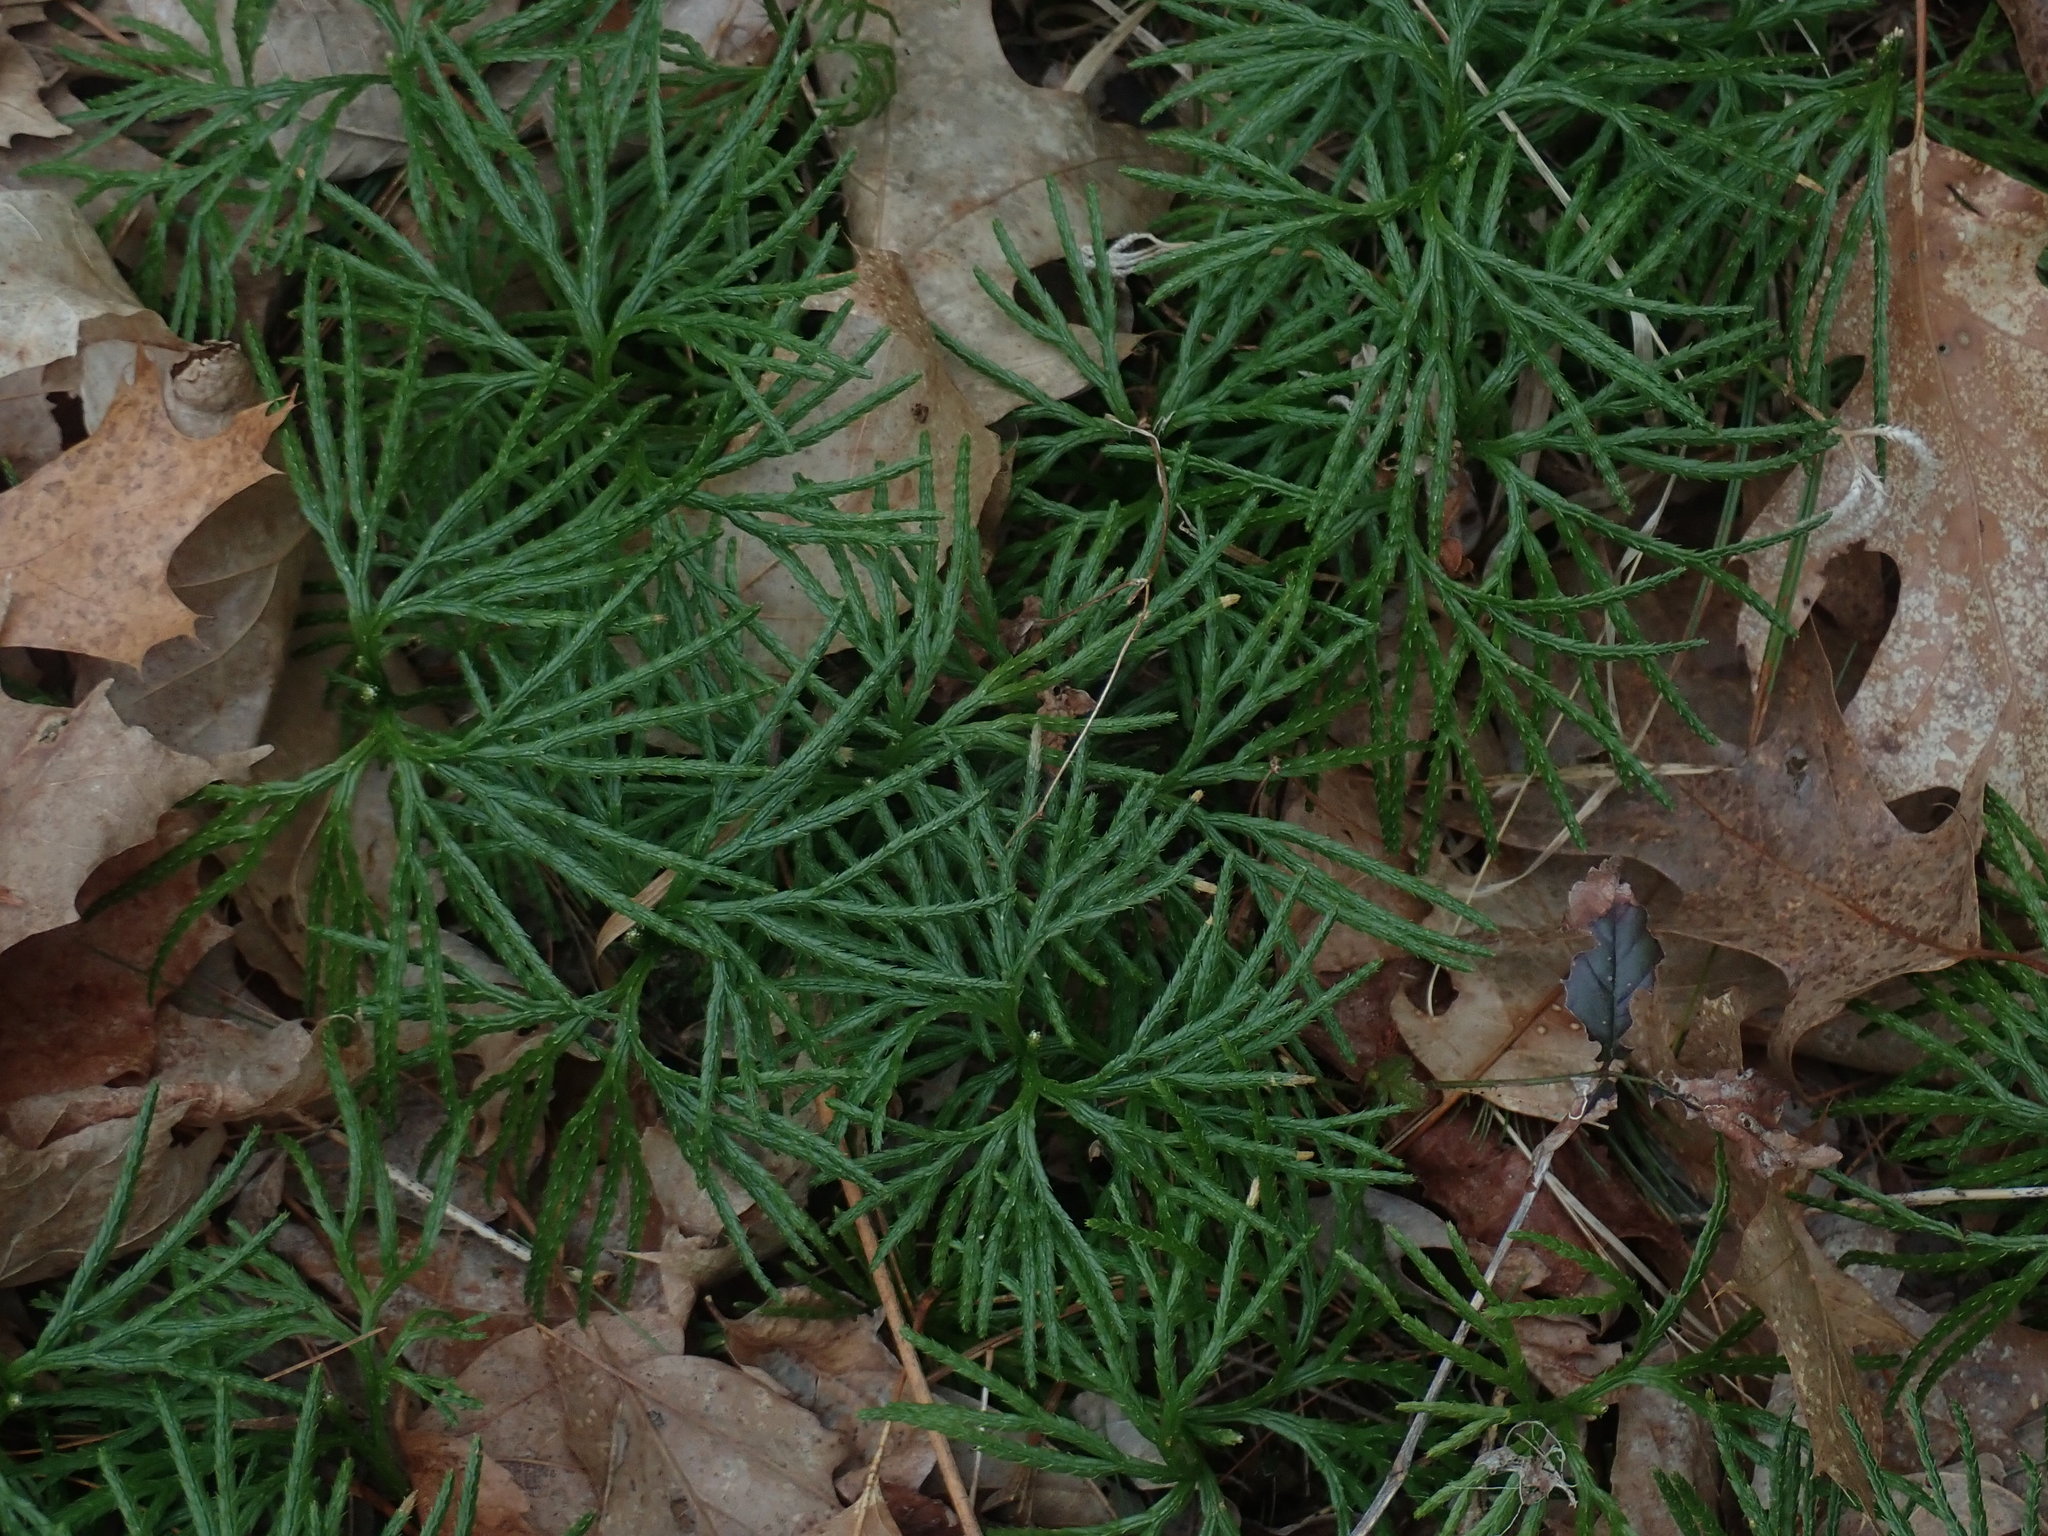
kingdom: Plantae
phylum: Tracheophyta
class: Lycopodiopsida
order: Lycopodiales
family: Lycopodiaceae
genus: Diphasiastrum
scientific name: Diphasiastrum digitatum
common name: Southern running-pine
